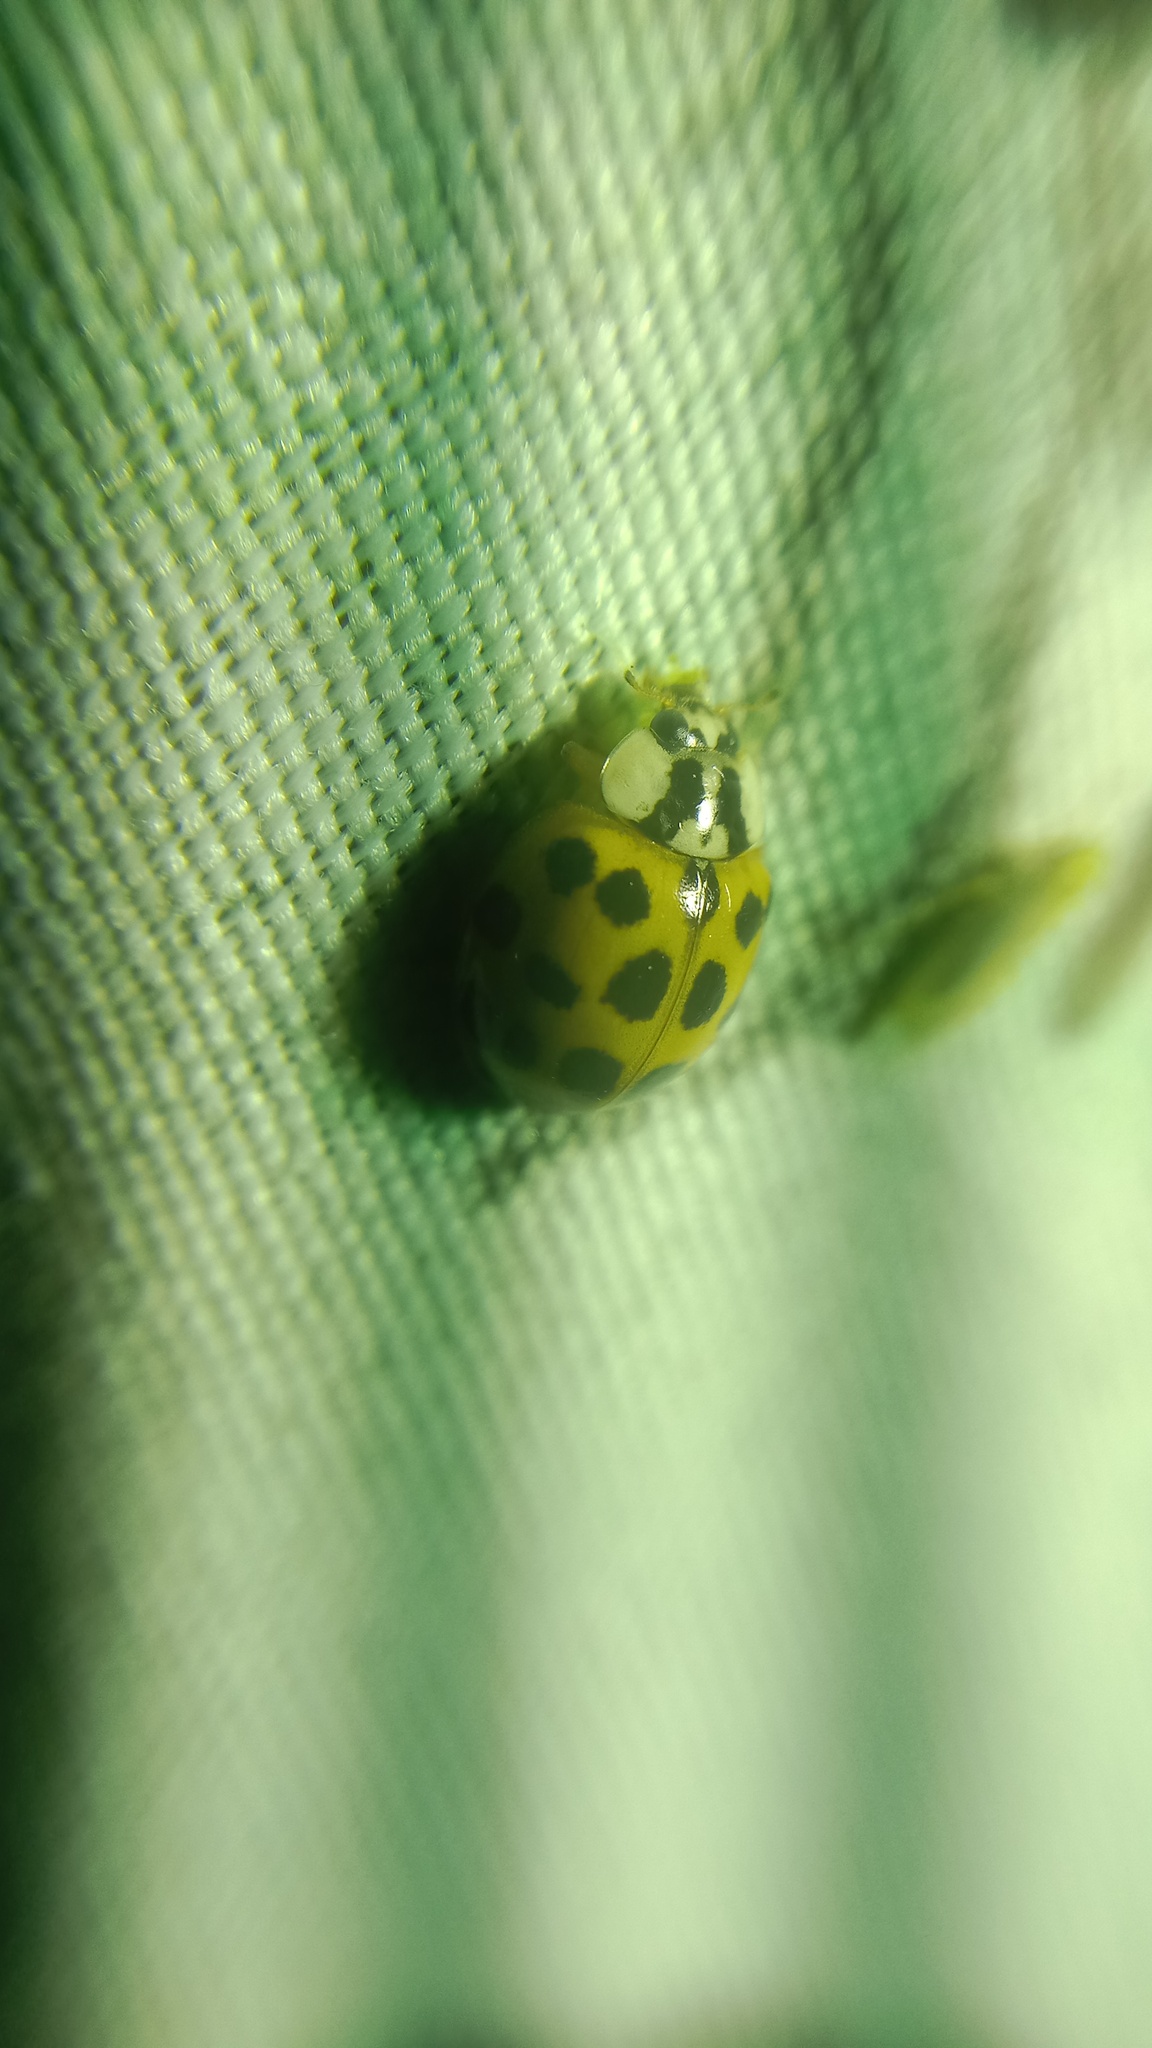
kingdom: Animalia
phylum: Arthropoda
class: Insecta
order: Coleoptera
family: Coccinellidae
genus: Harmonia
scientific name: Harmonia axyridis
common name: Harlequin ladybird
